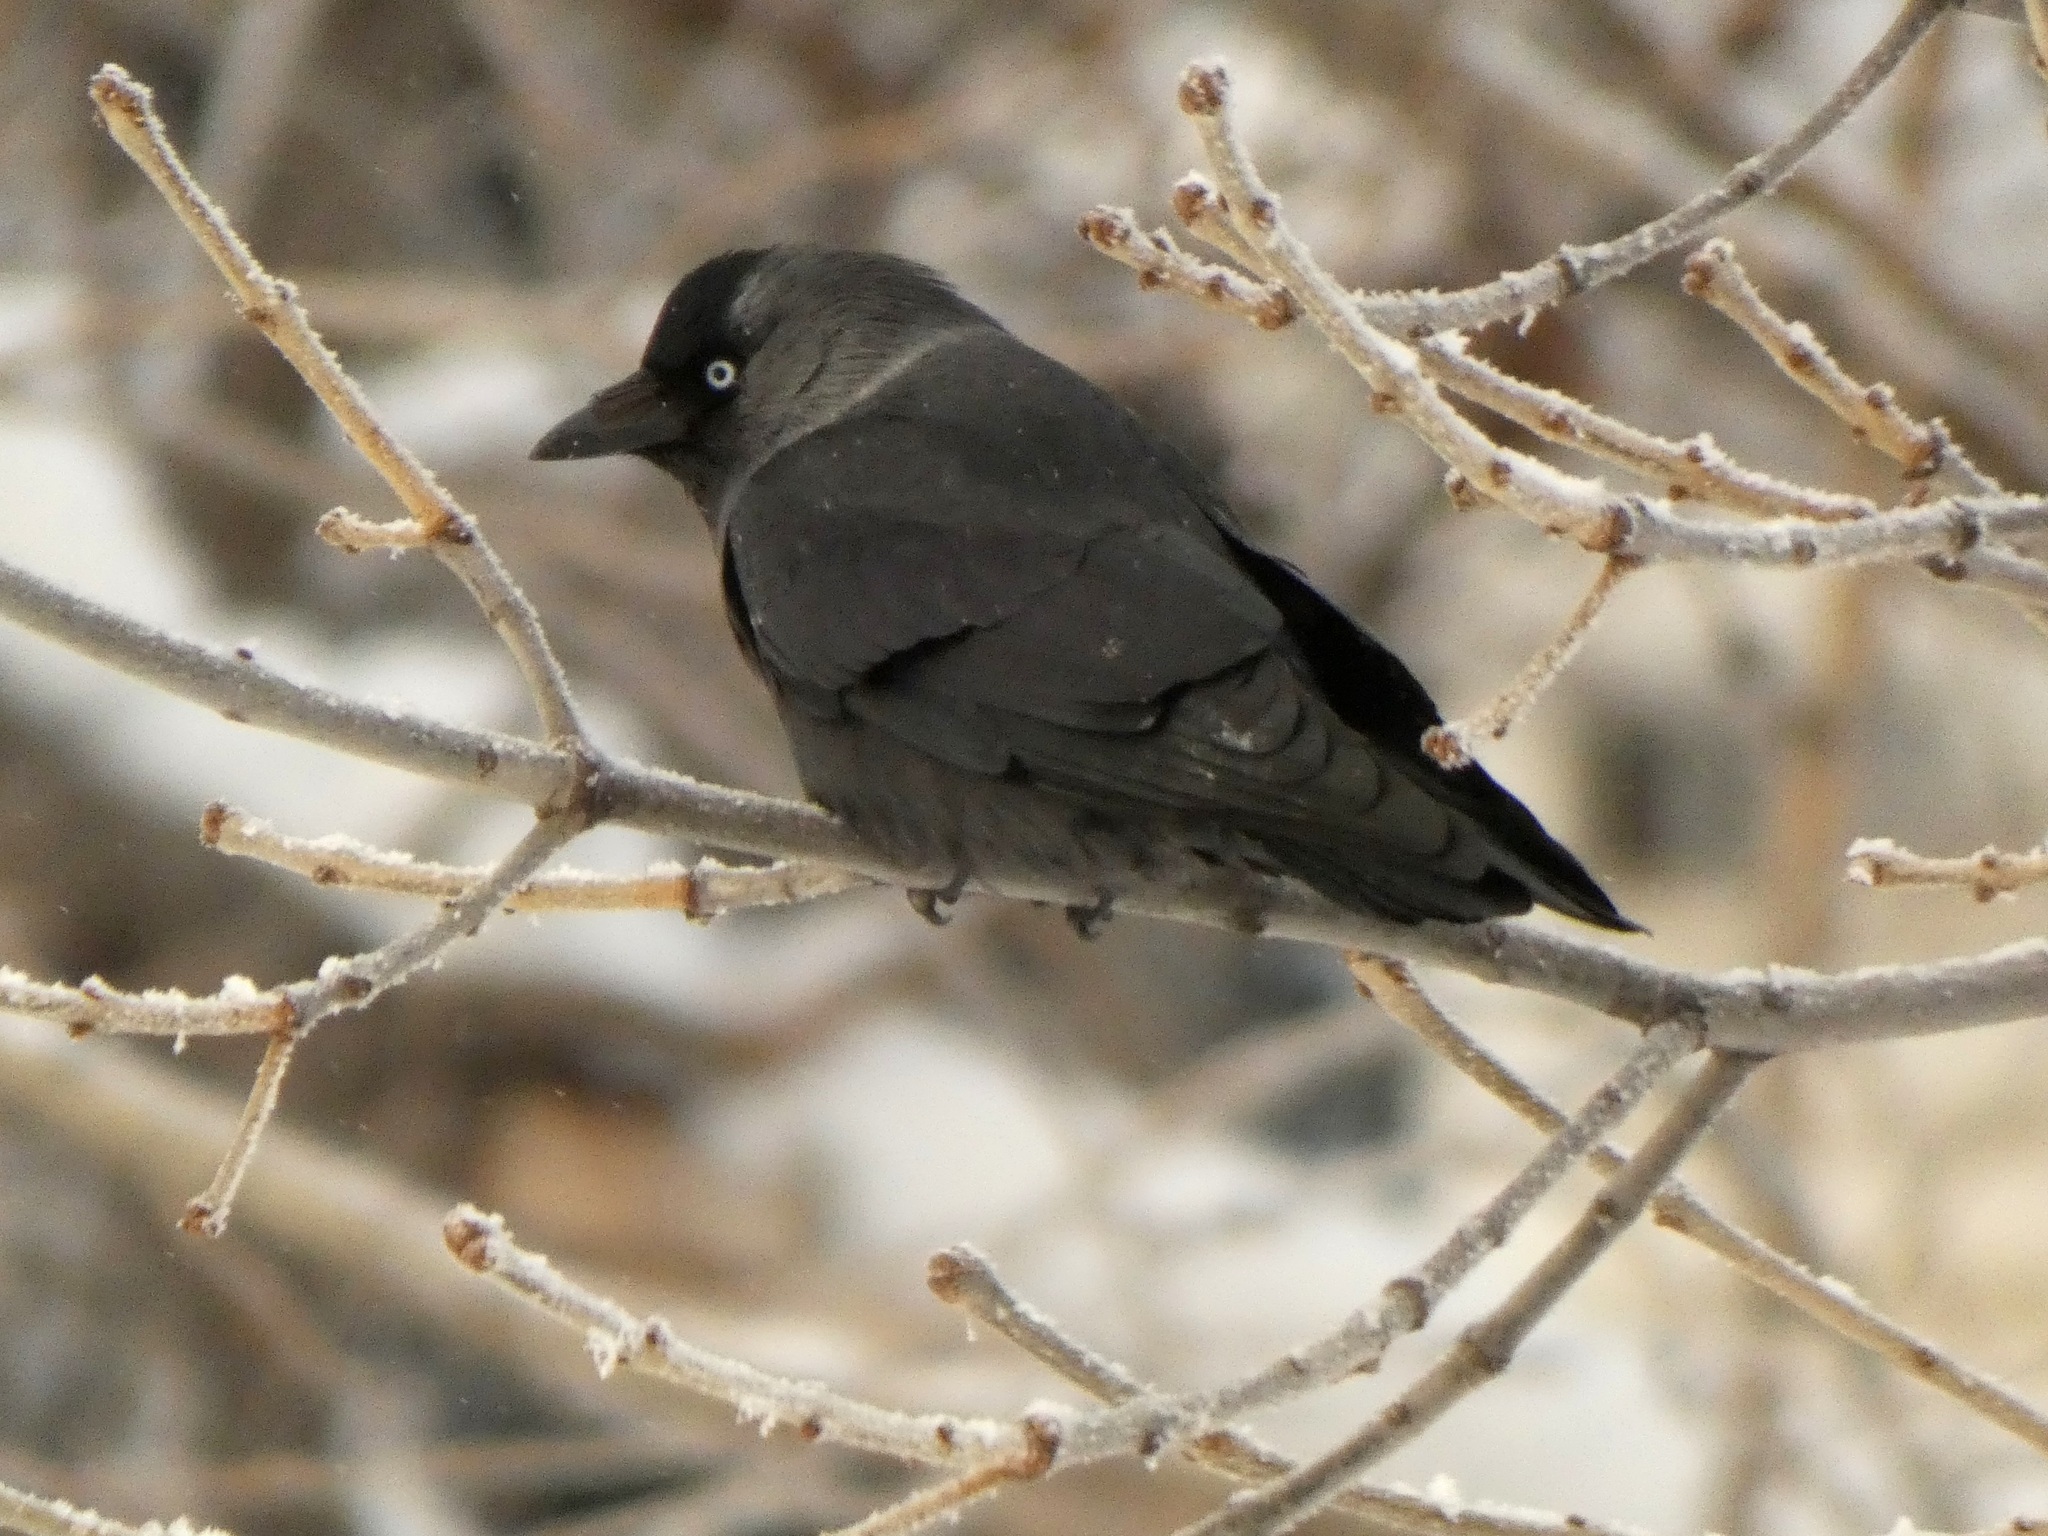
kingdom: Animalia
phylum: Chordata
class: Aves
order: Passeriformes
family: Corvidae
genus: Coloeus
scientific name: Coloeus monedula
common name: Western jackdaw
